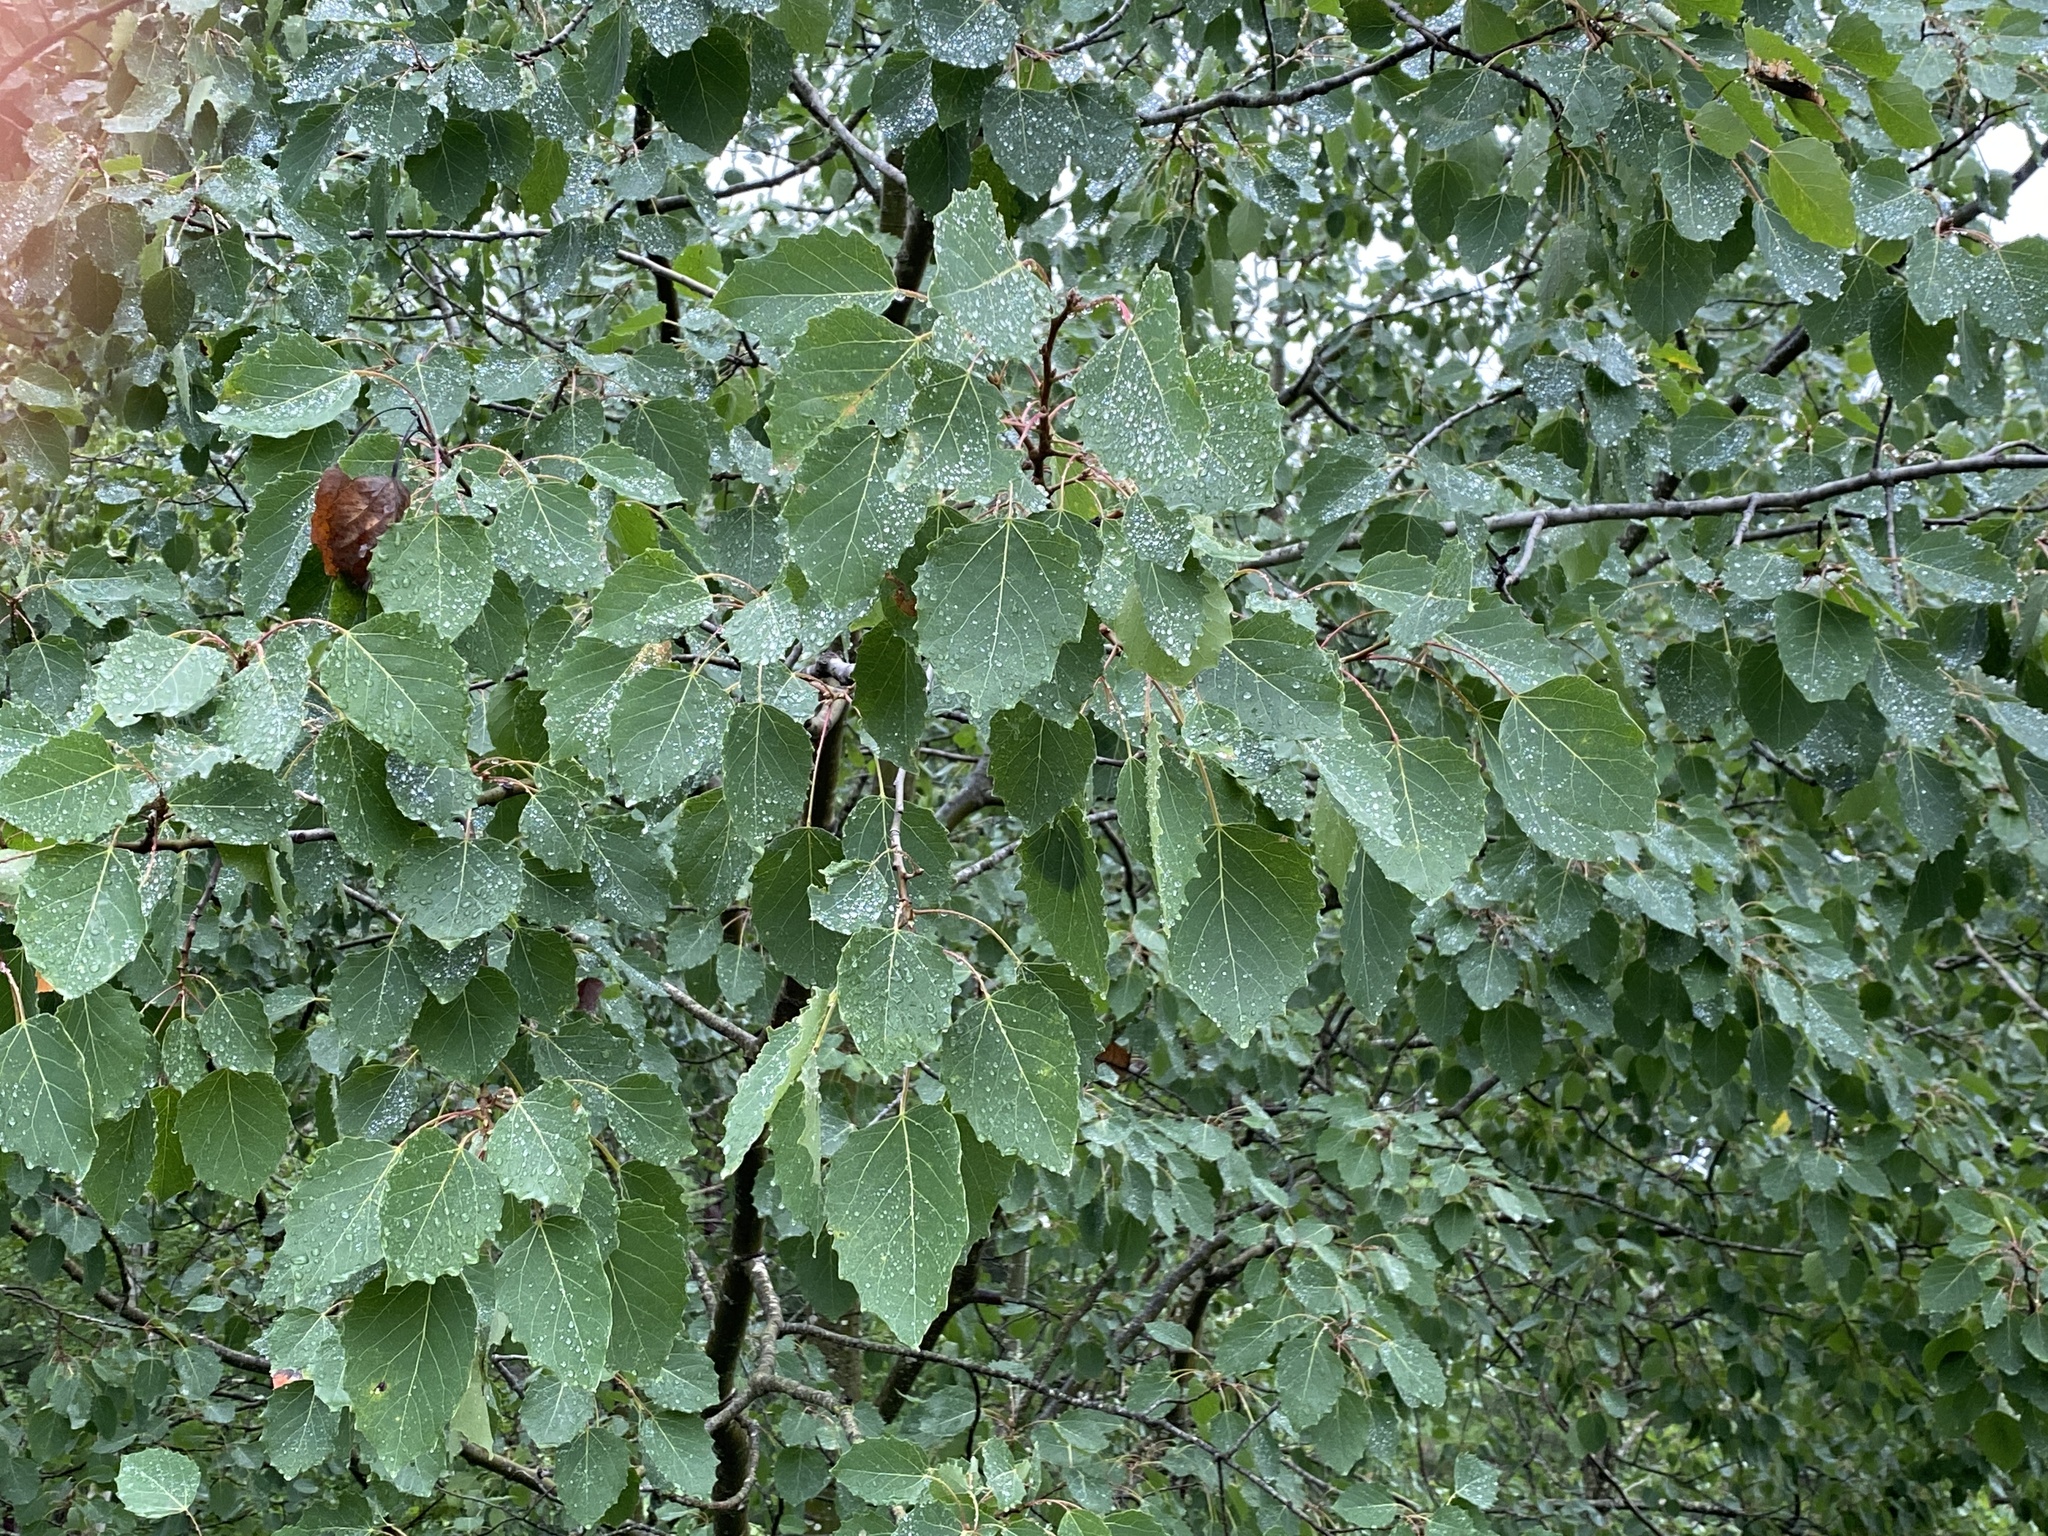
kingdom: Plantae
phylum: Tracheophyta
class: Magnoliopsida
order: Malpighiales
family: Salicaceae
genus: Populus
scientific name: Populus grandidentata
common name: Bigtooth aspen
